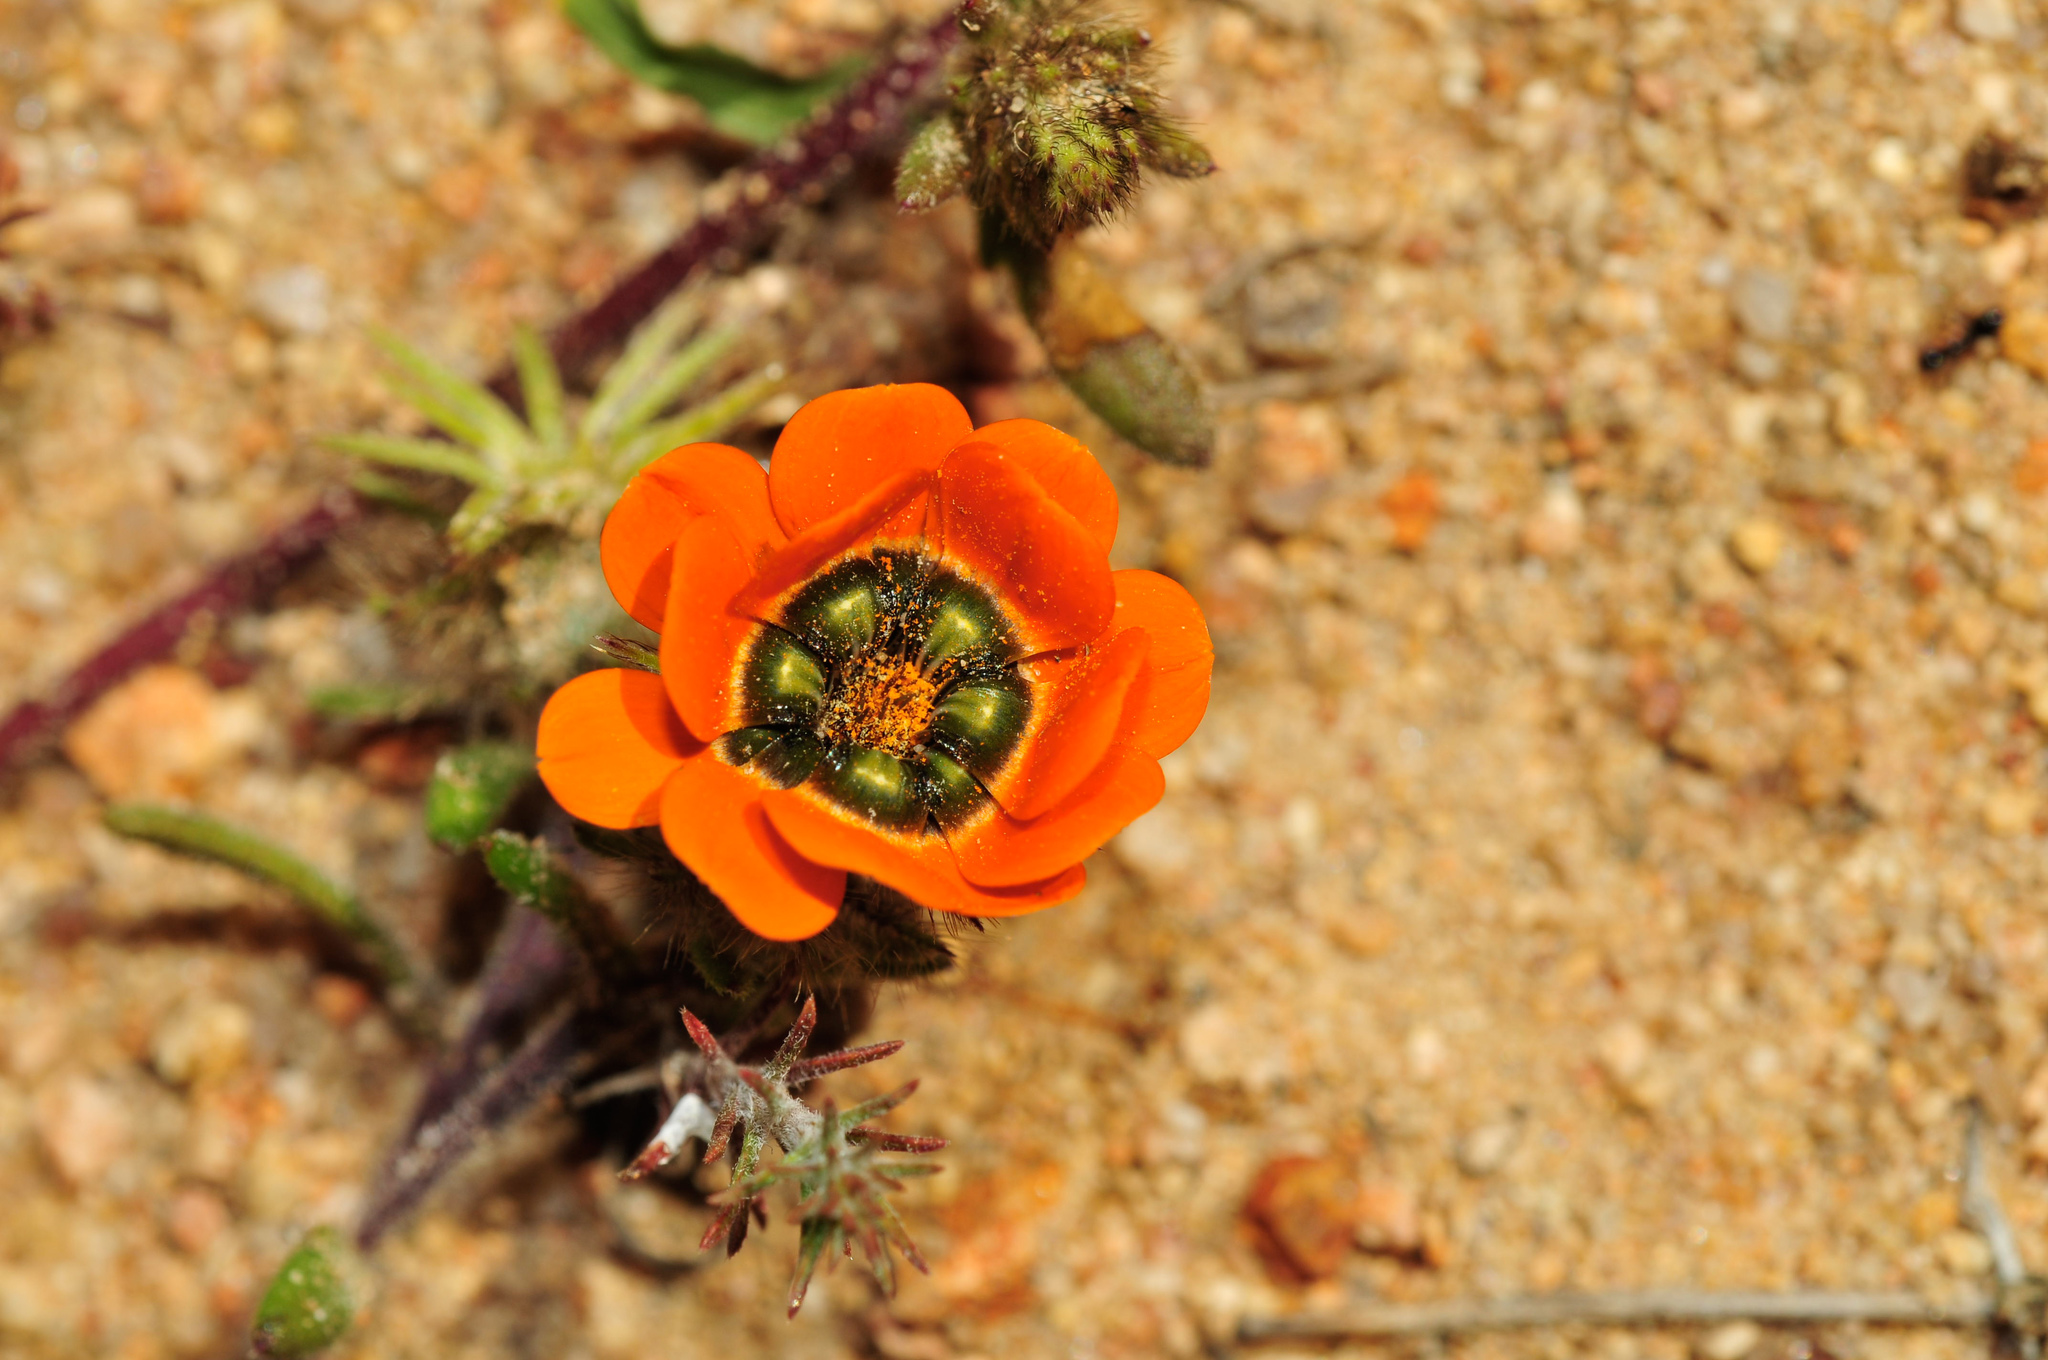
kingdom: Plantae
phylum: Tracheophyta
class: Magnoliopsida
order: Asterales
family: Asteraceae
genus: Gorteria
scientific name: Gorteria diffusa
